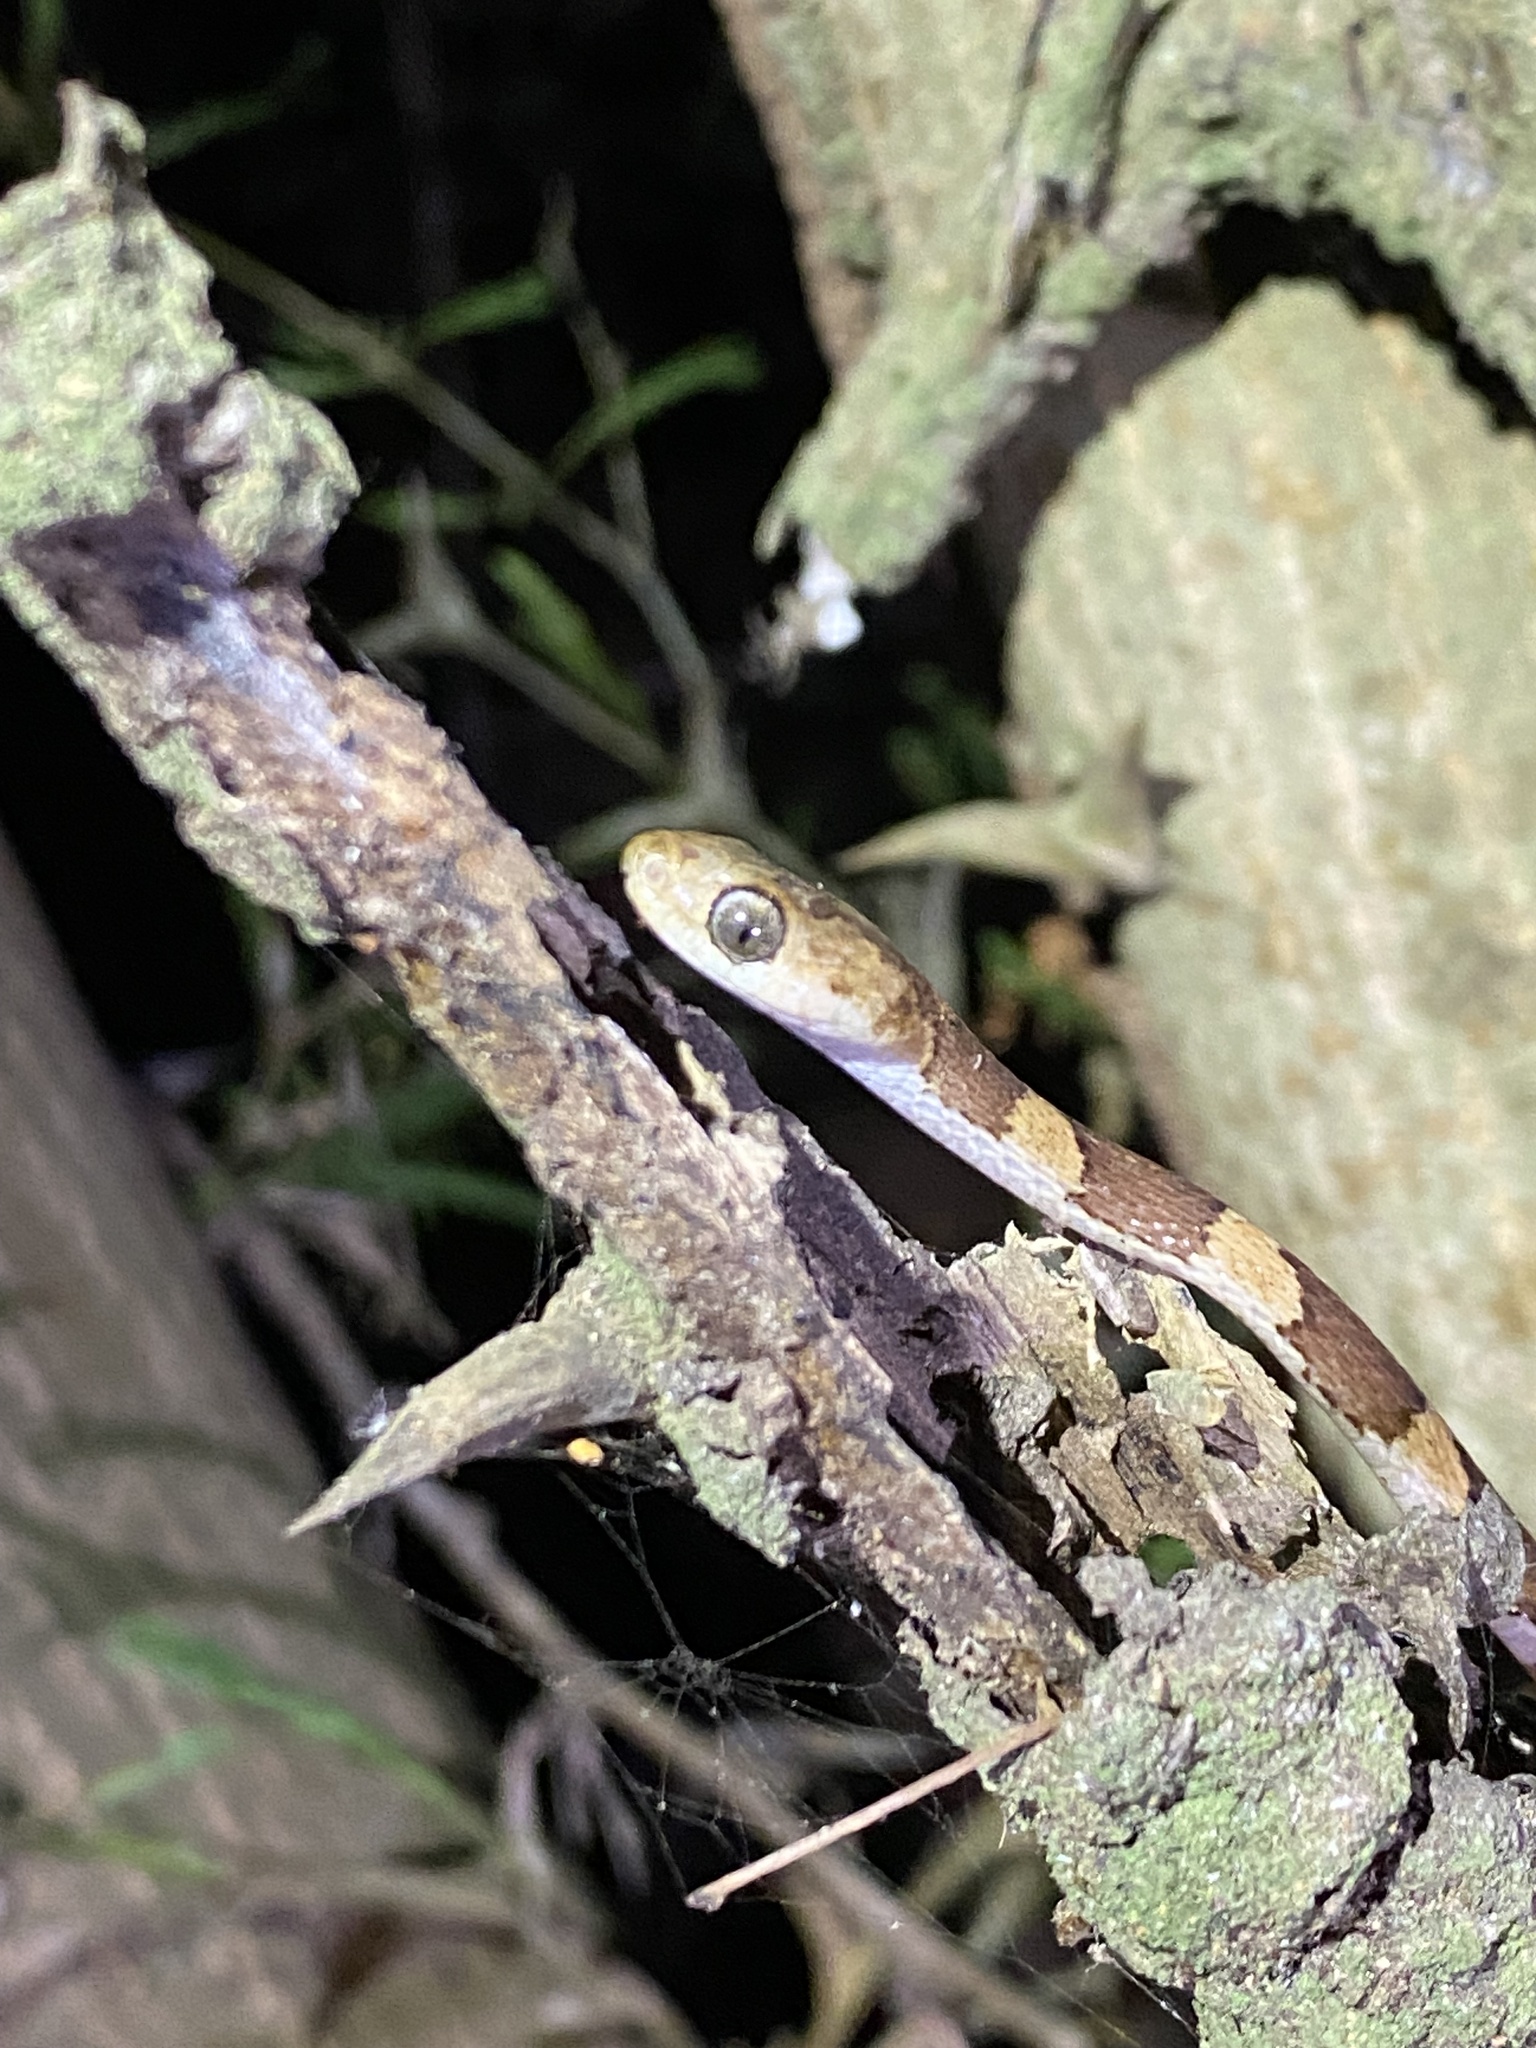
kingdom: Animalia
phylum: Chordata
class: Squamata
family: Colubridae
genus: Imantodes
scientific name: Imantodes gemmistratus
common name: Central american tree snake
